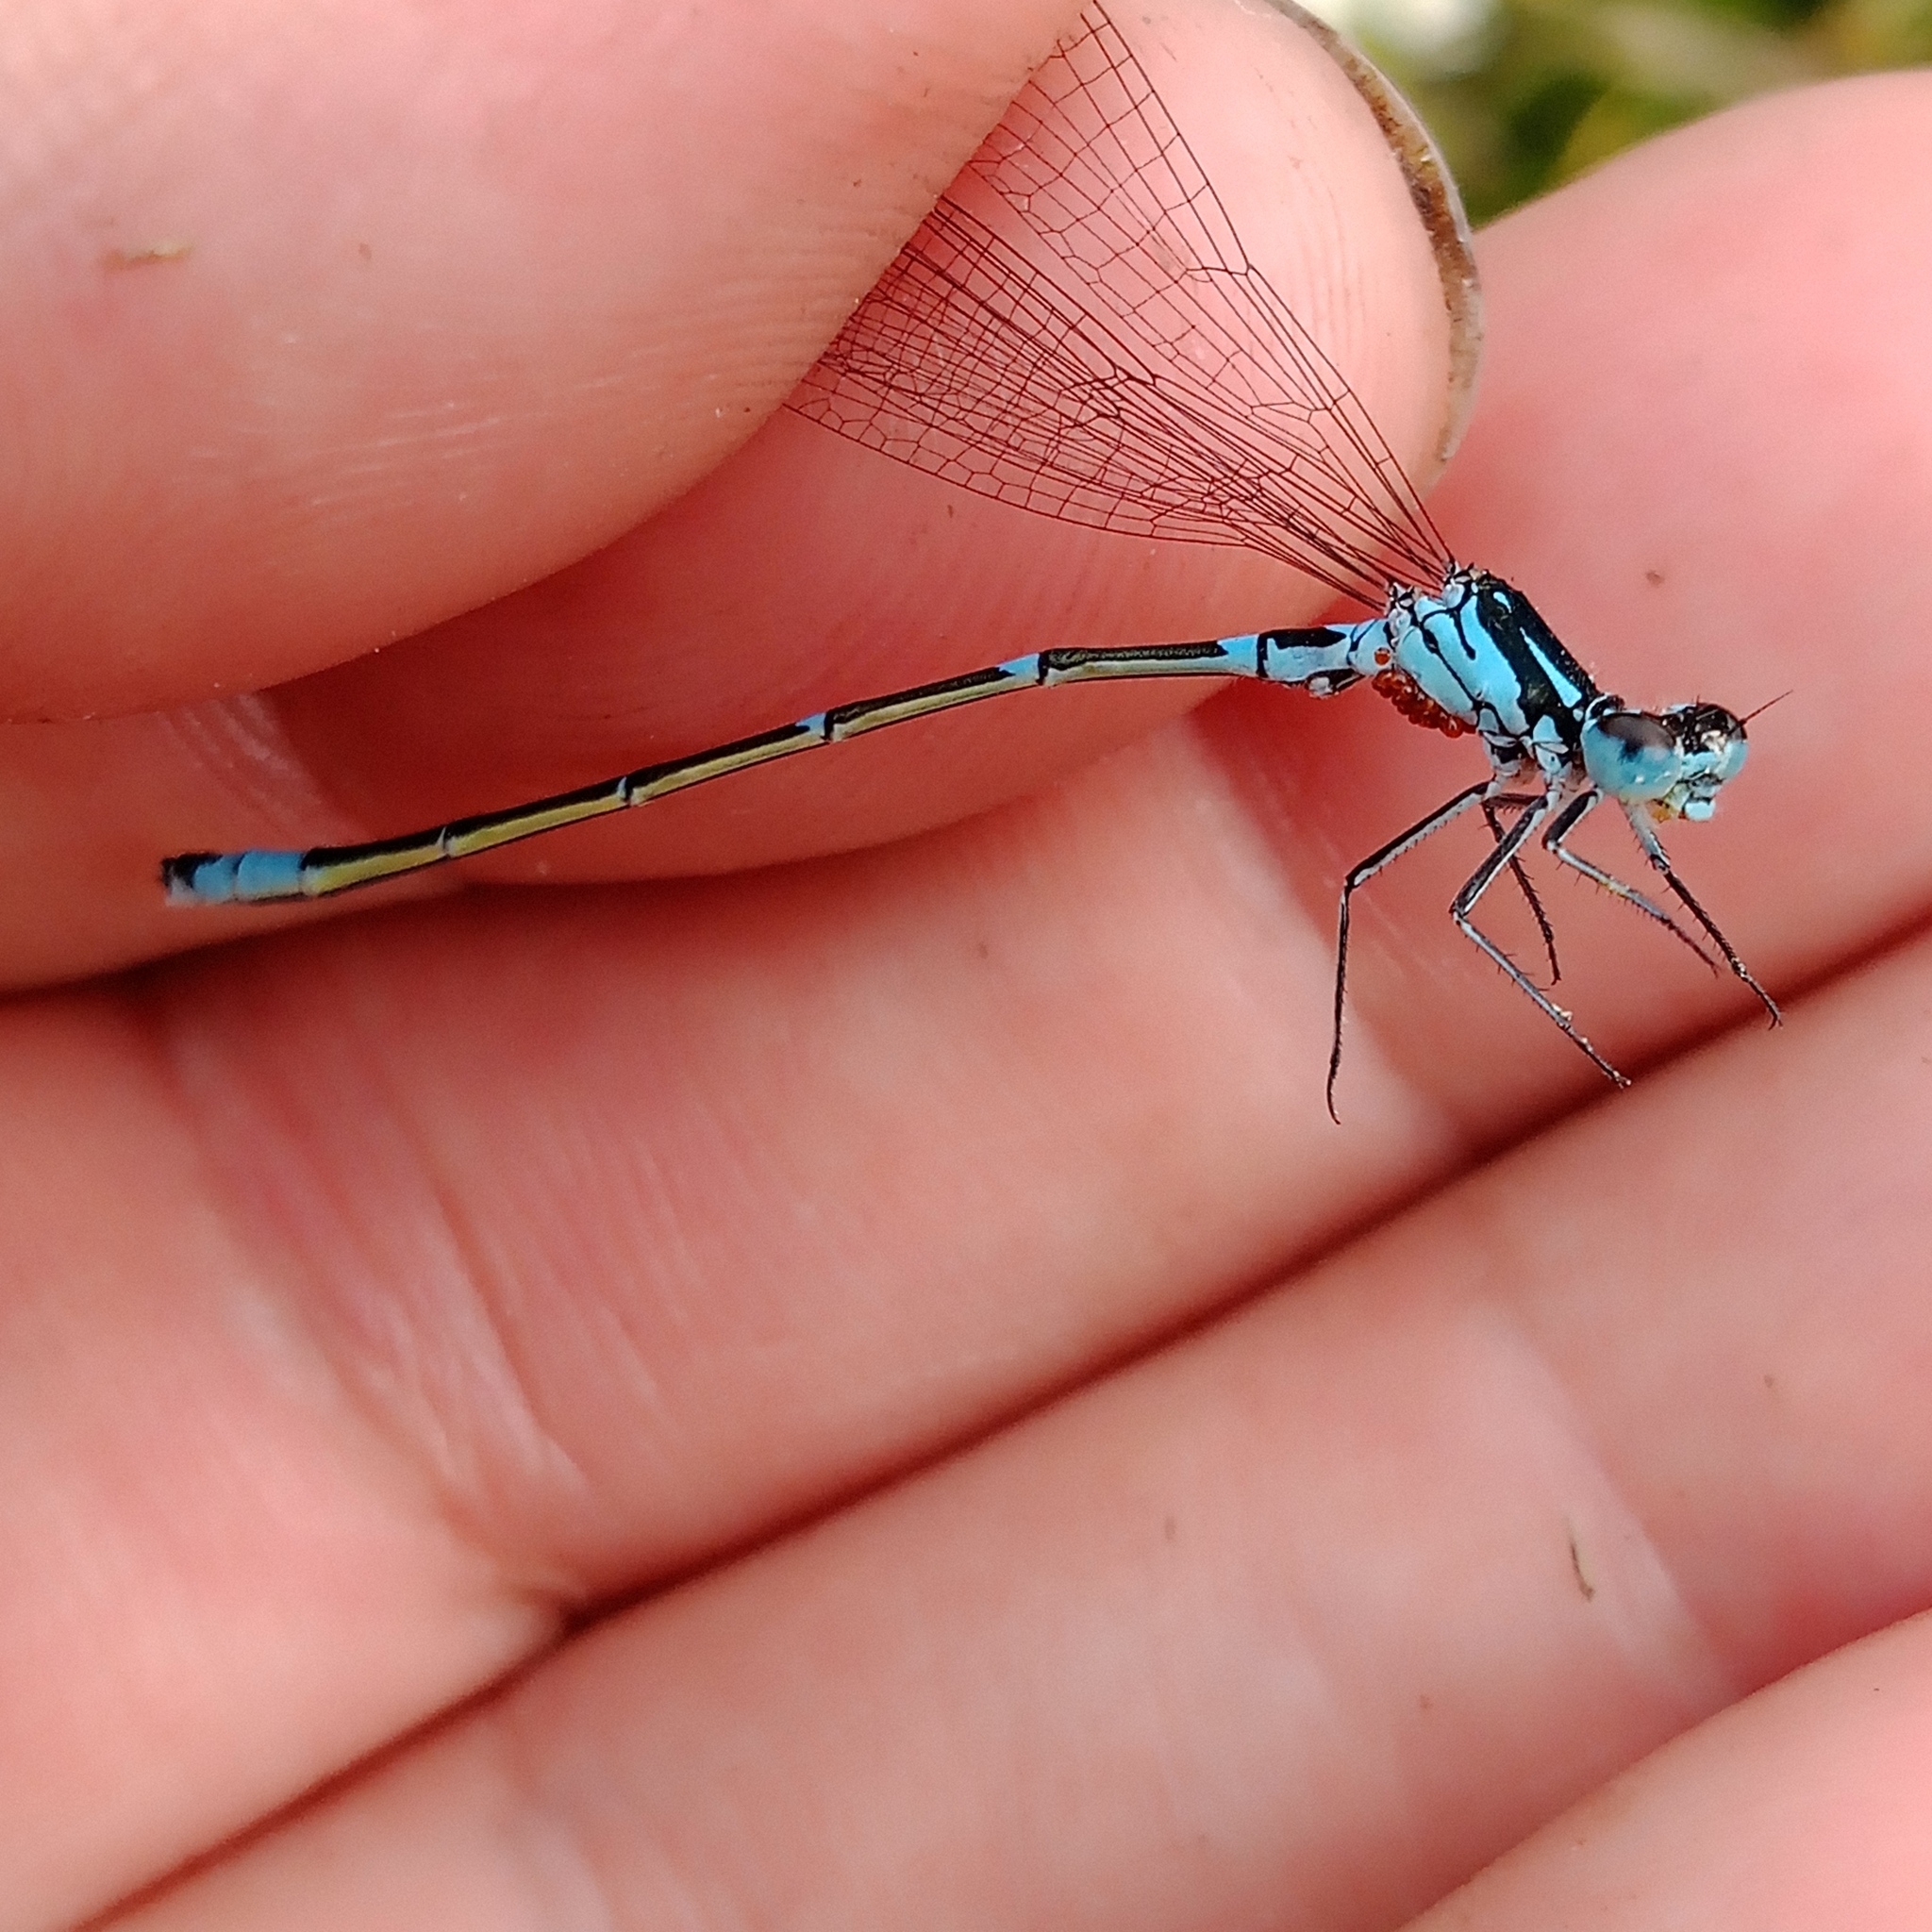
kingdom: Animalia
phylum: Arthropoda
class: Insecta
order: Odonata
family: Coenagrionidae
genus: Coenagrion
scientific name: Coenagrion pulchellum
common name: Variable bluet
